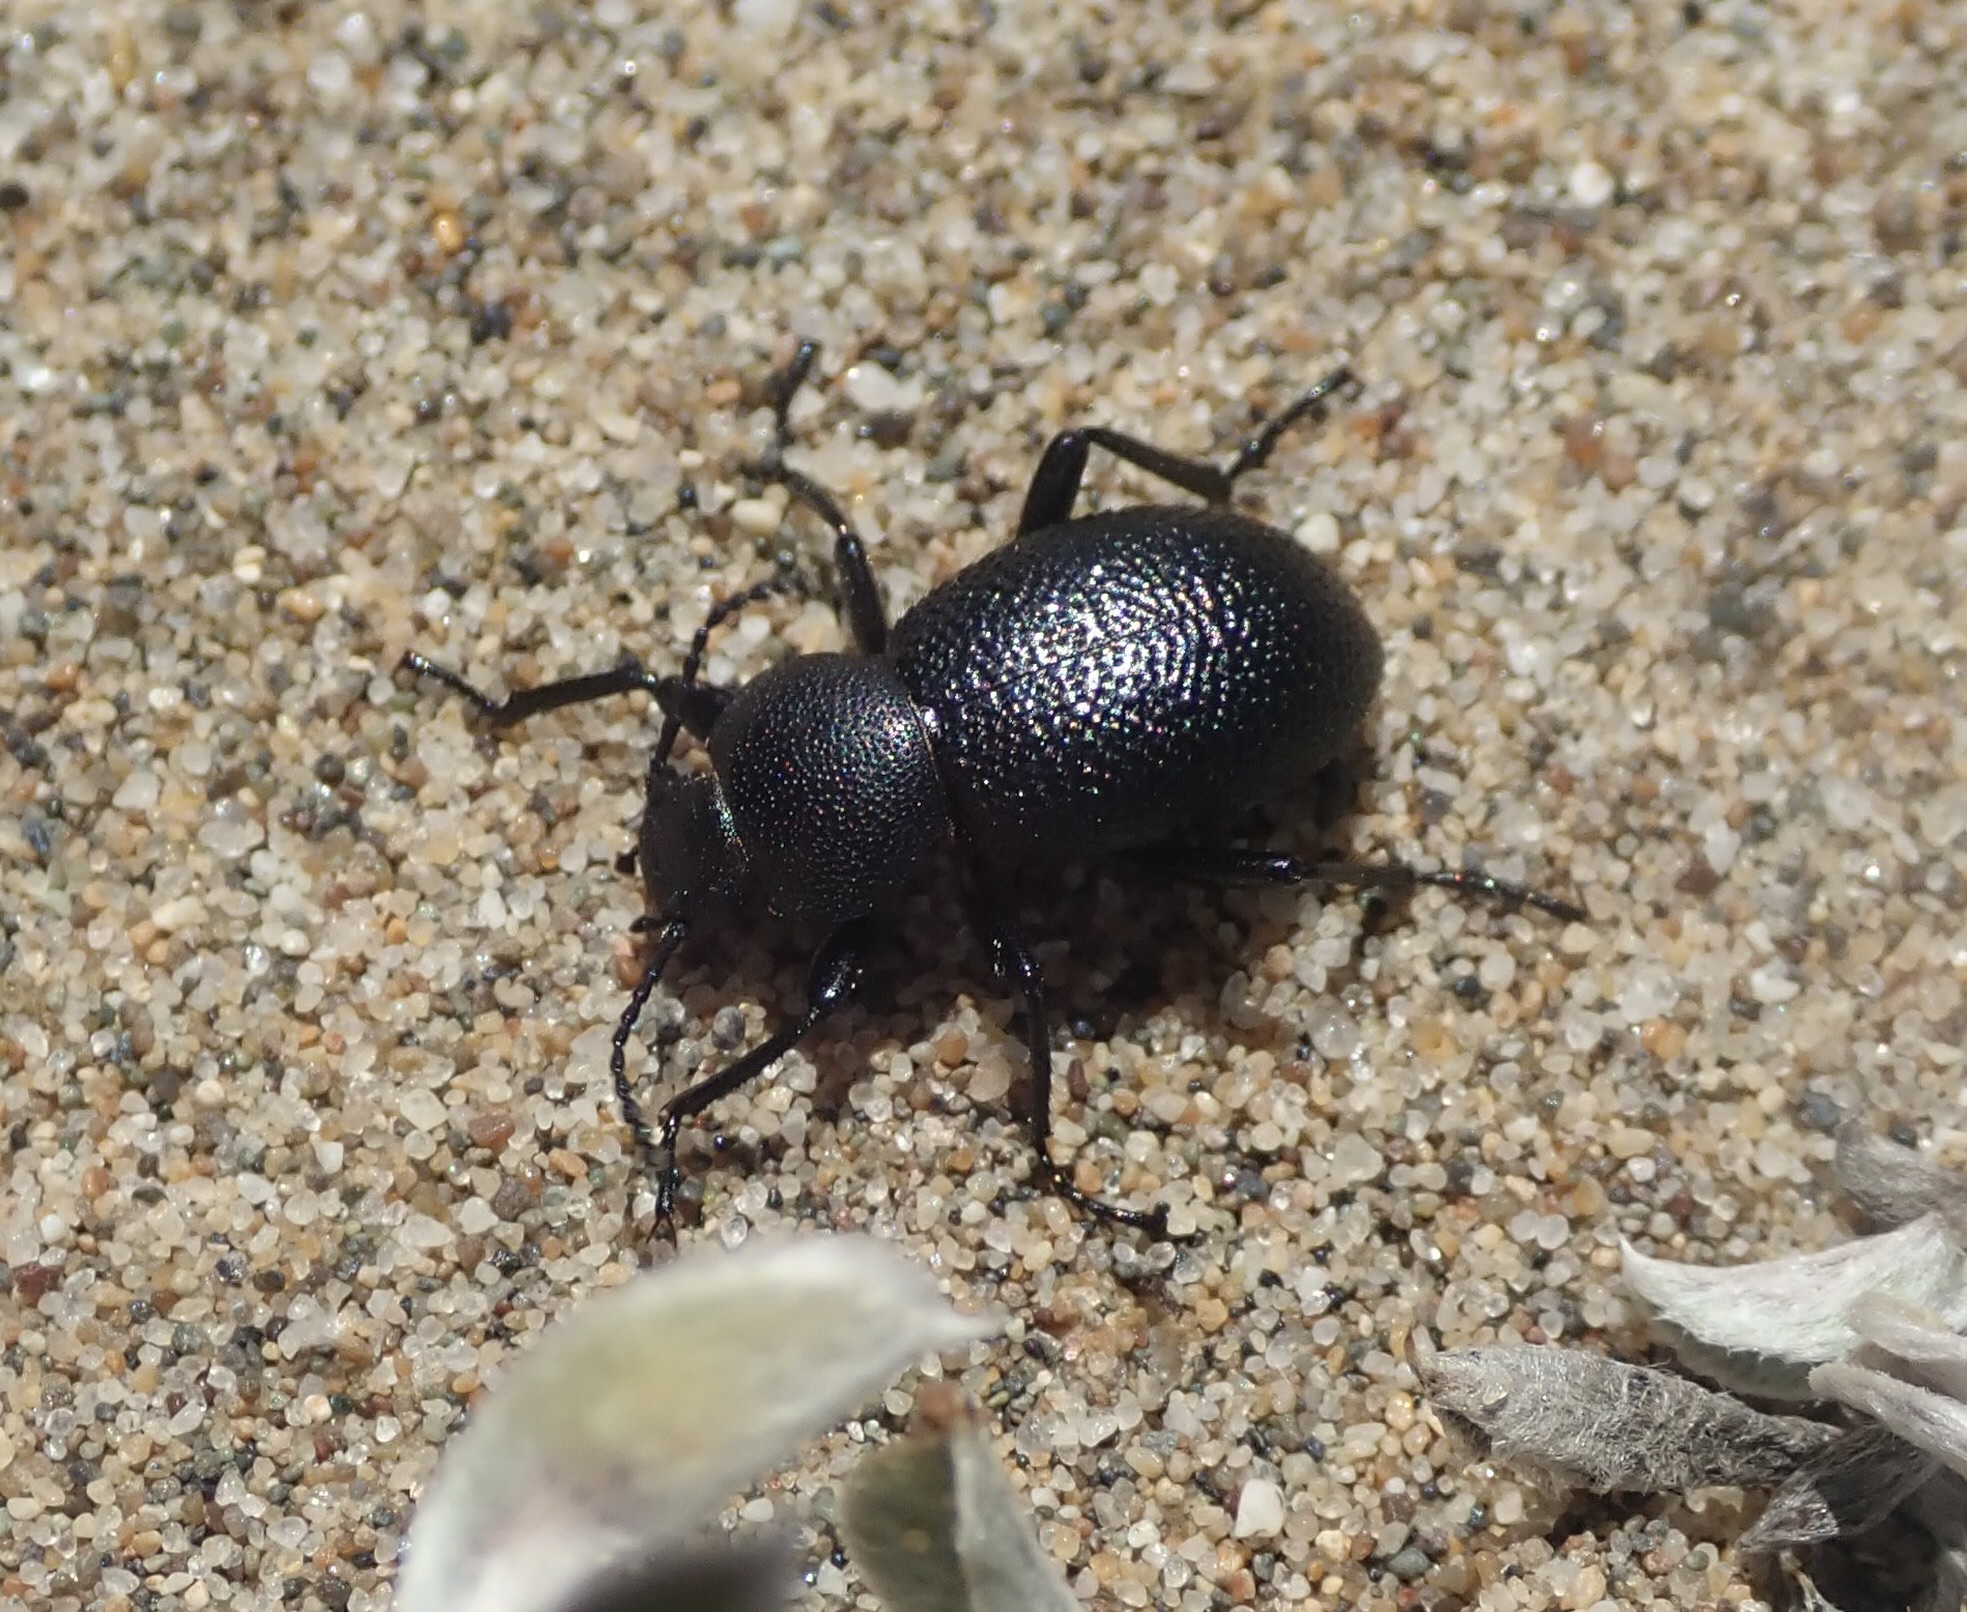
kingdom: Animalia
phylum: Arthropoda
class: Insecta
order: Coleoptera
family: Tenebrionidae
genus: Eleodes
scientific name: Eleodes scabrosa
